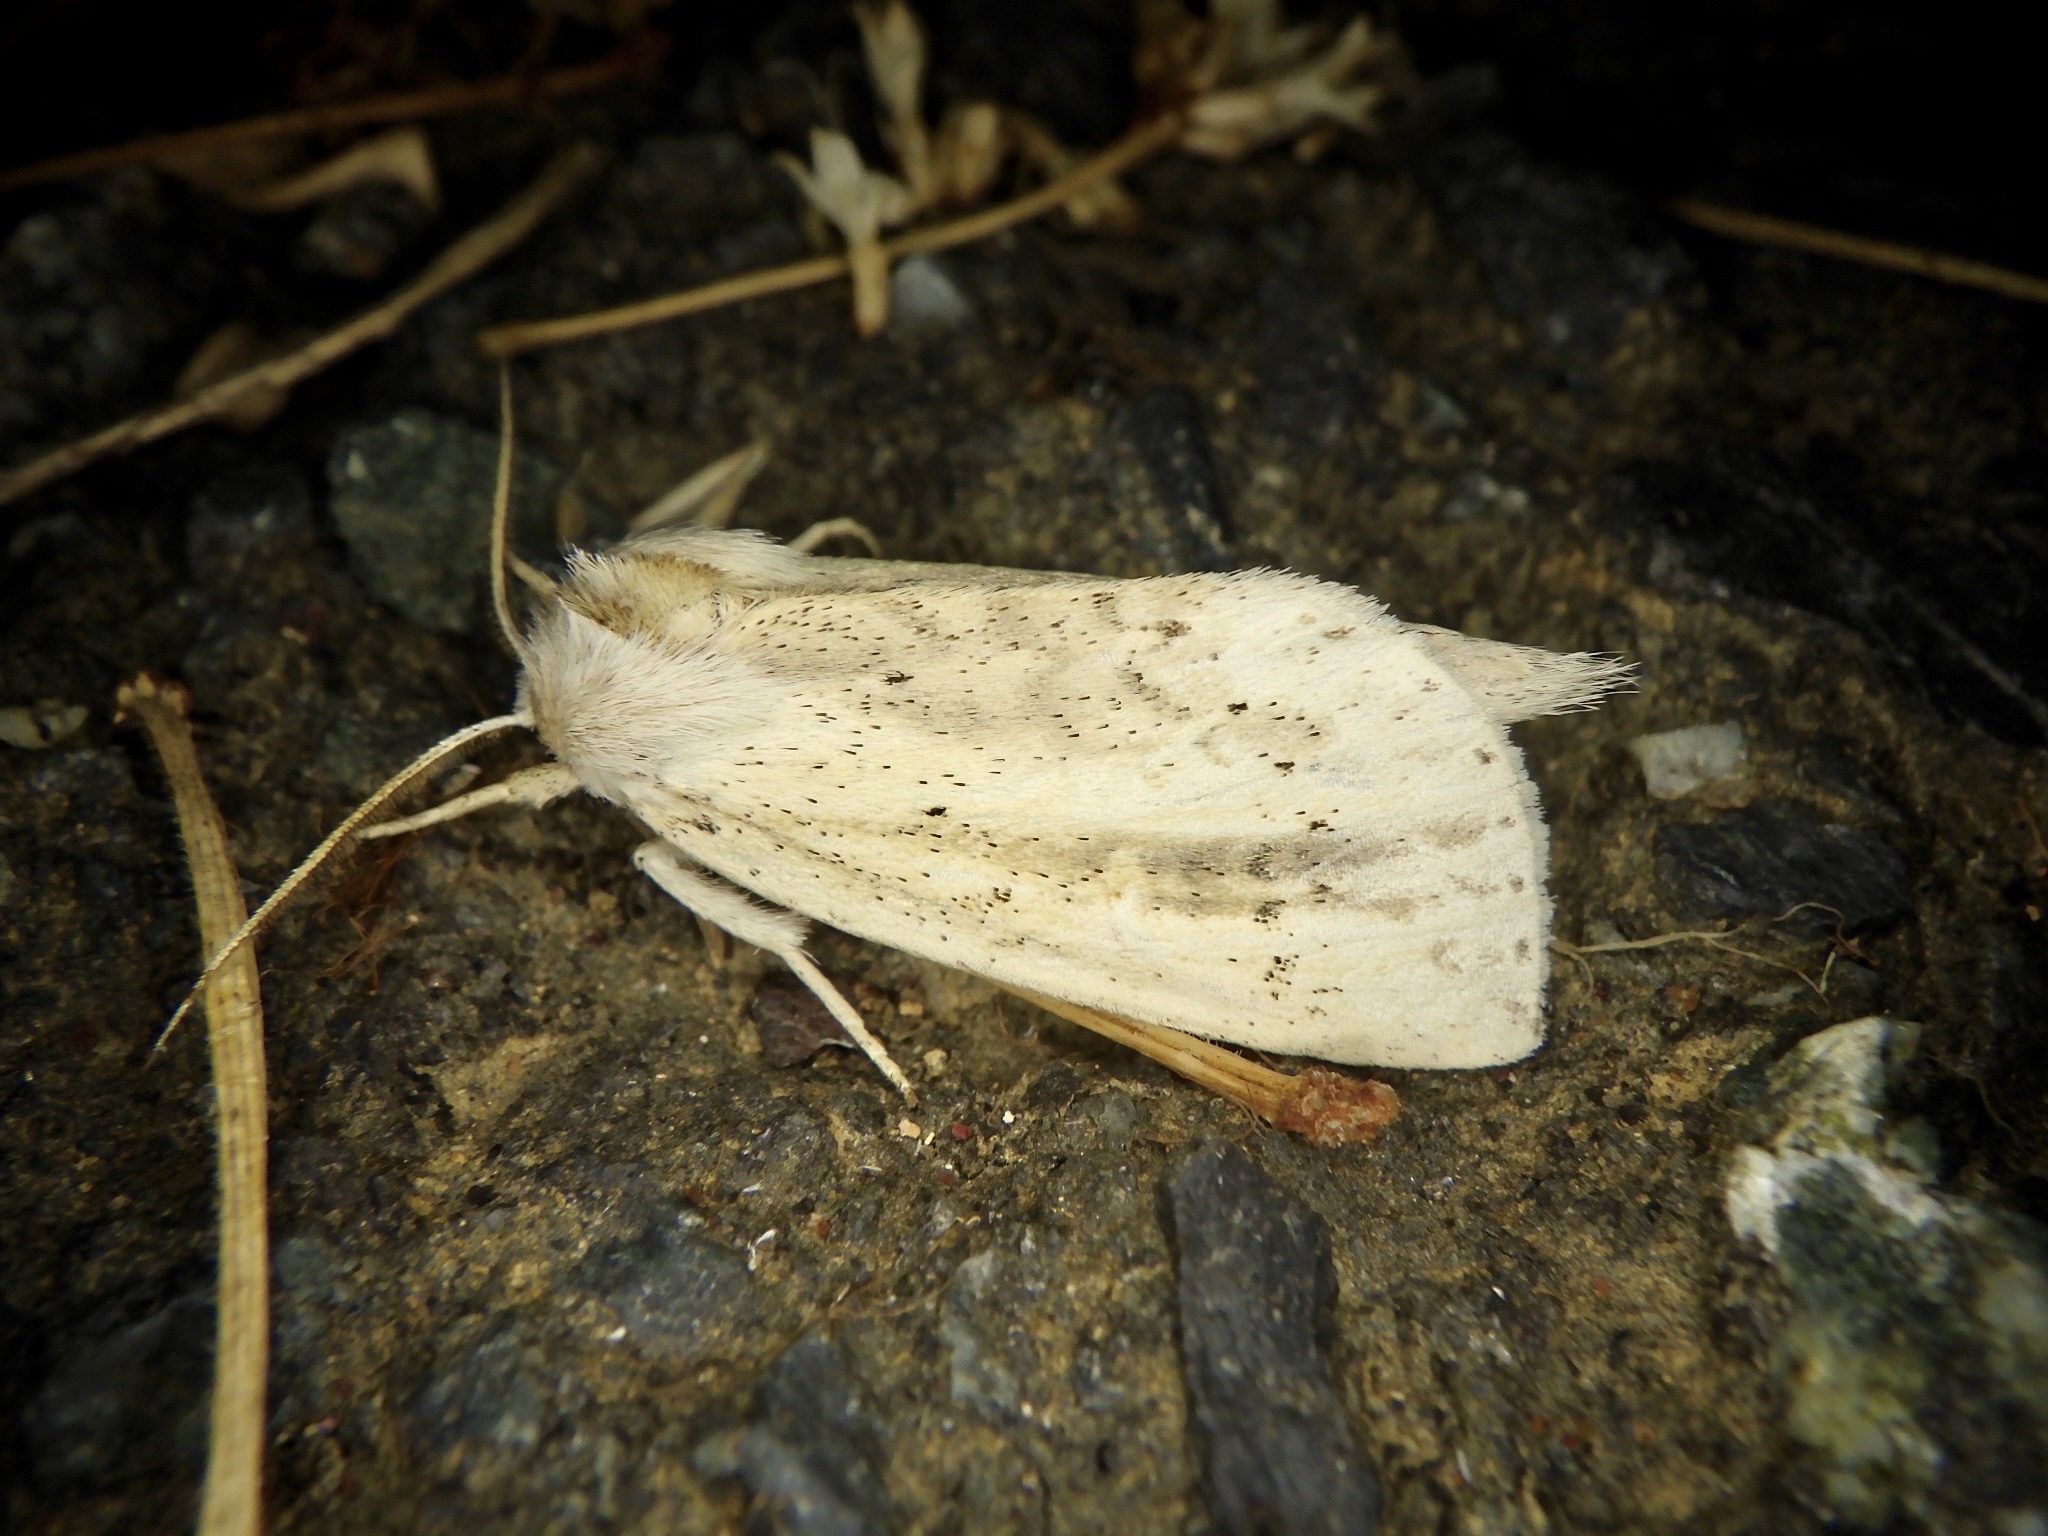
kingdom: Animalia
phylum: Arthropoda
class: Insecta
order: Lepidoptera
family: Notodontidae
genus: Mimopydna
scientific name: Mimopydna pallida
